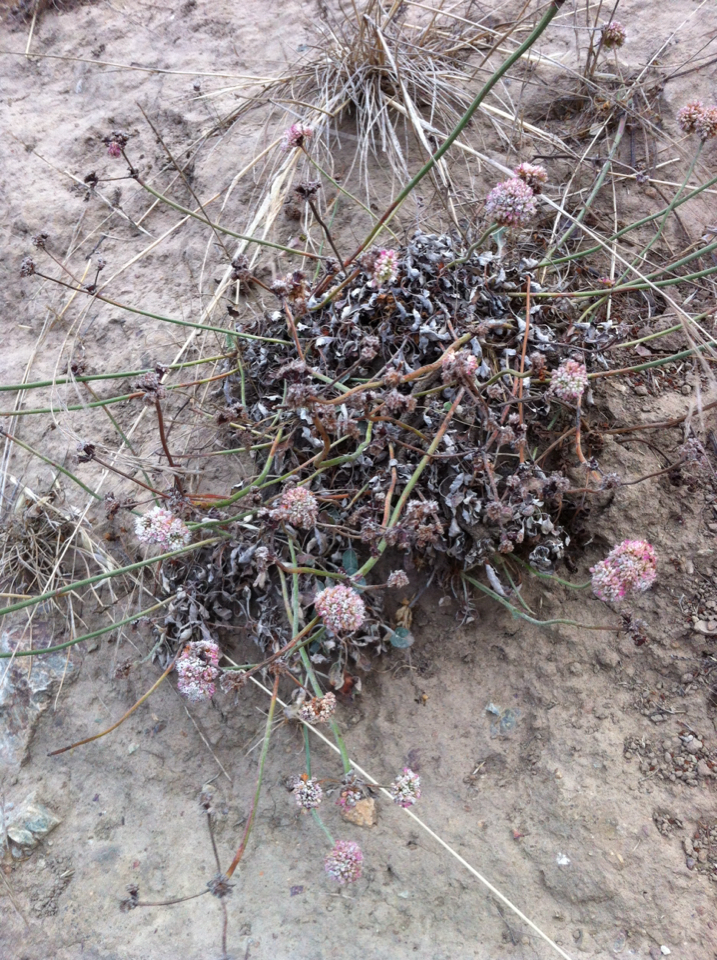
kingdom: Plantae
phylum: Tracheophyta
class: Magnoliopsida
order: Caryophyllales
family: Polygonaceae
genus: Eriogonum
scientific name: Eriogonum latifolium
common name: Seaside wild buckwheat
